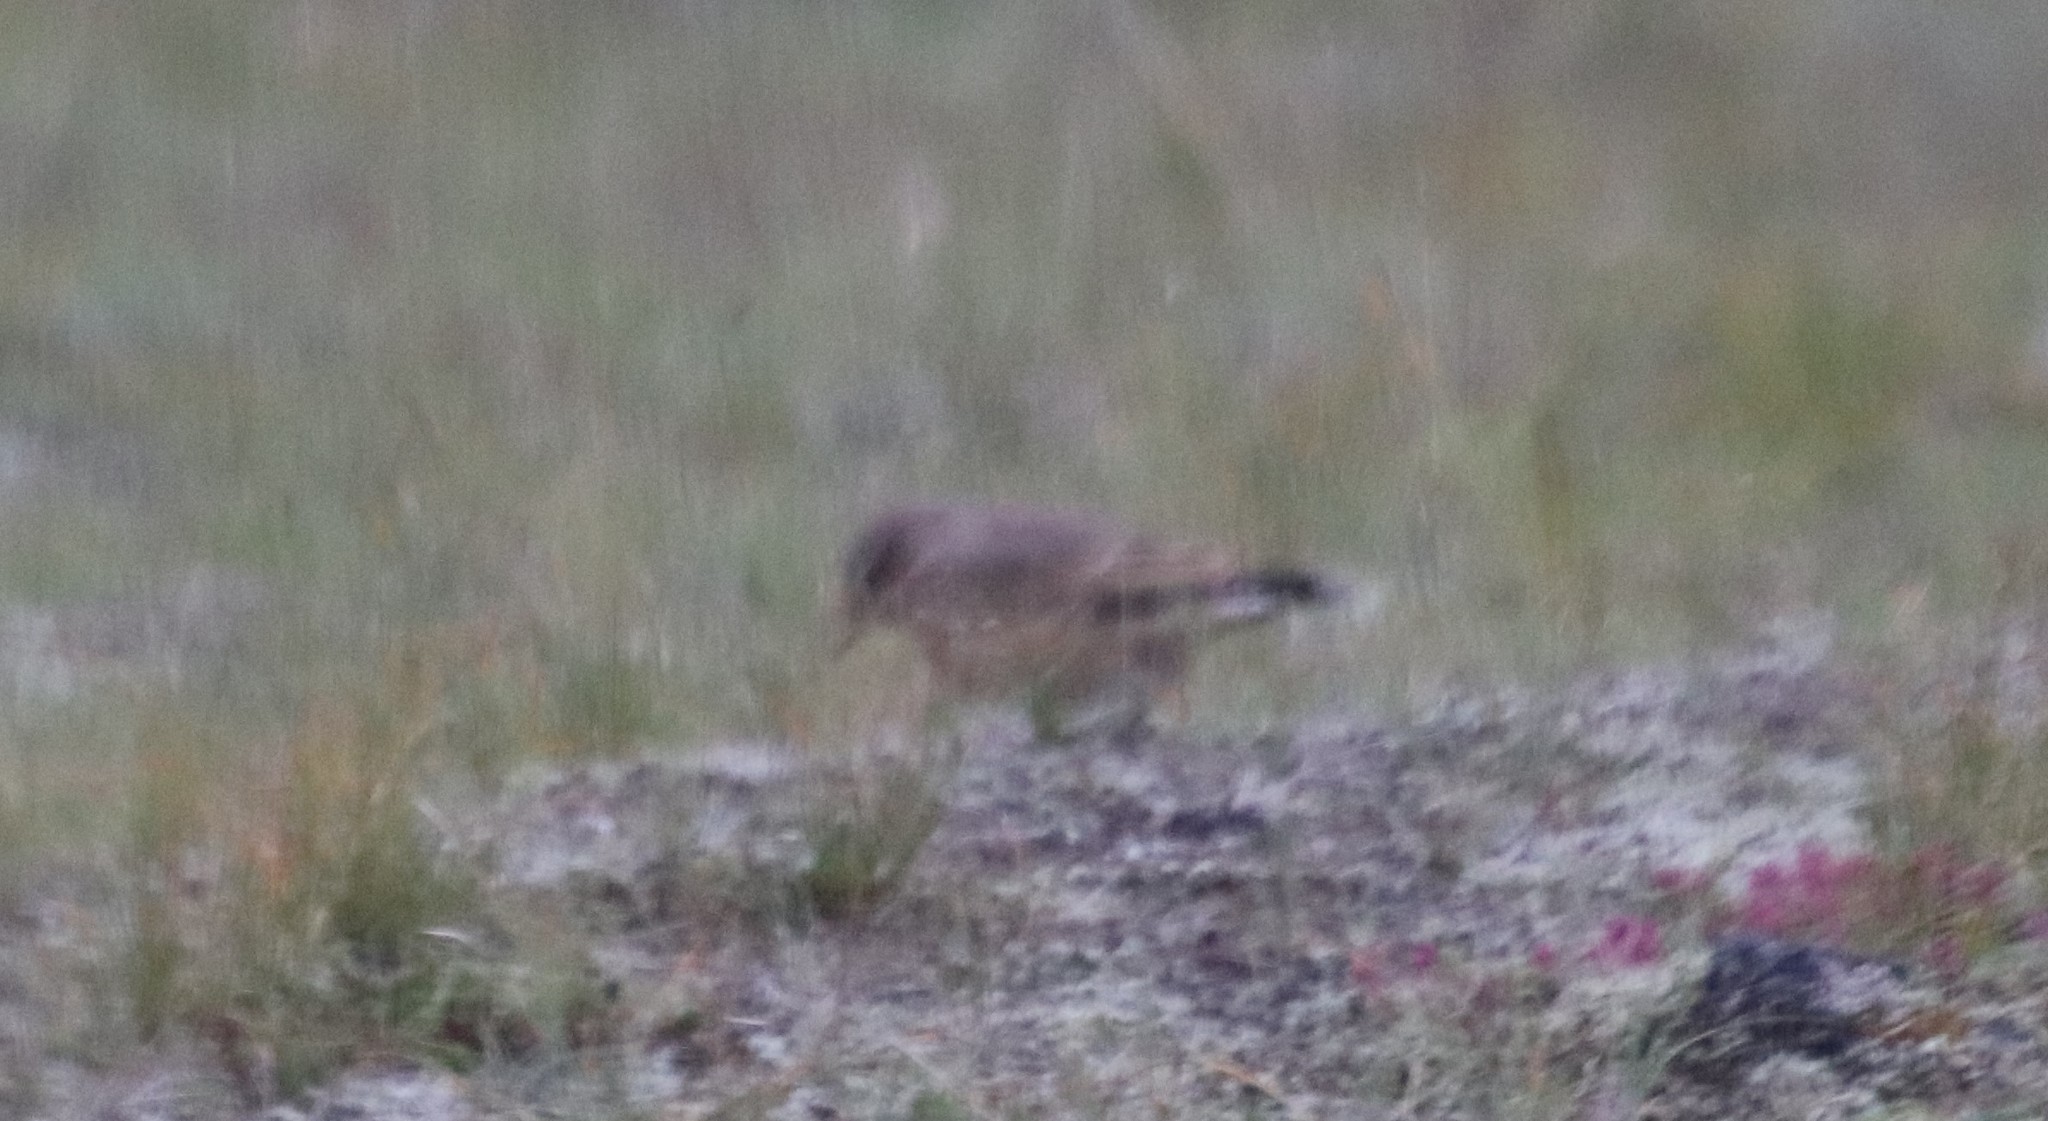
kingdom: Animalia
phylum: Chordata
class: Aves
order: Passeriformes
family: Muscicapidae
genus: Oenanthe
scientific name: Oenanthe oenanthe
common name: Northern wheatear
